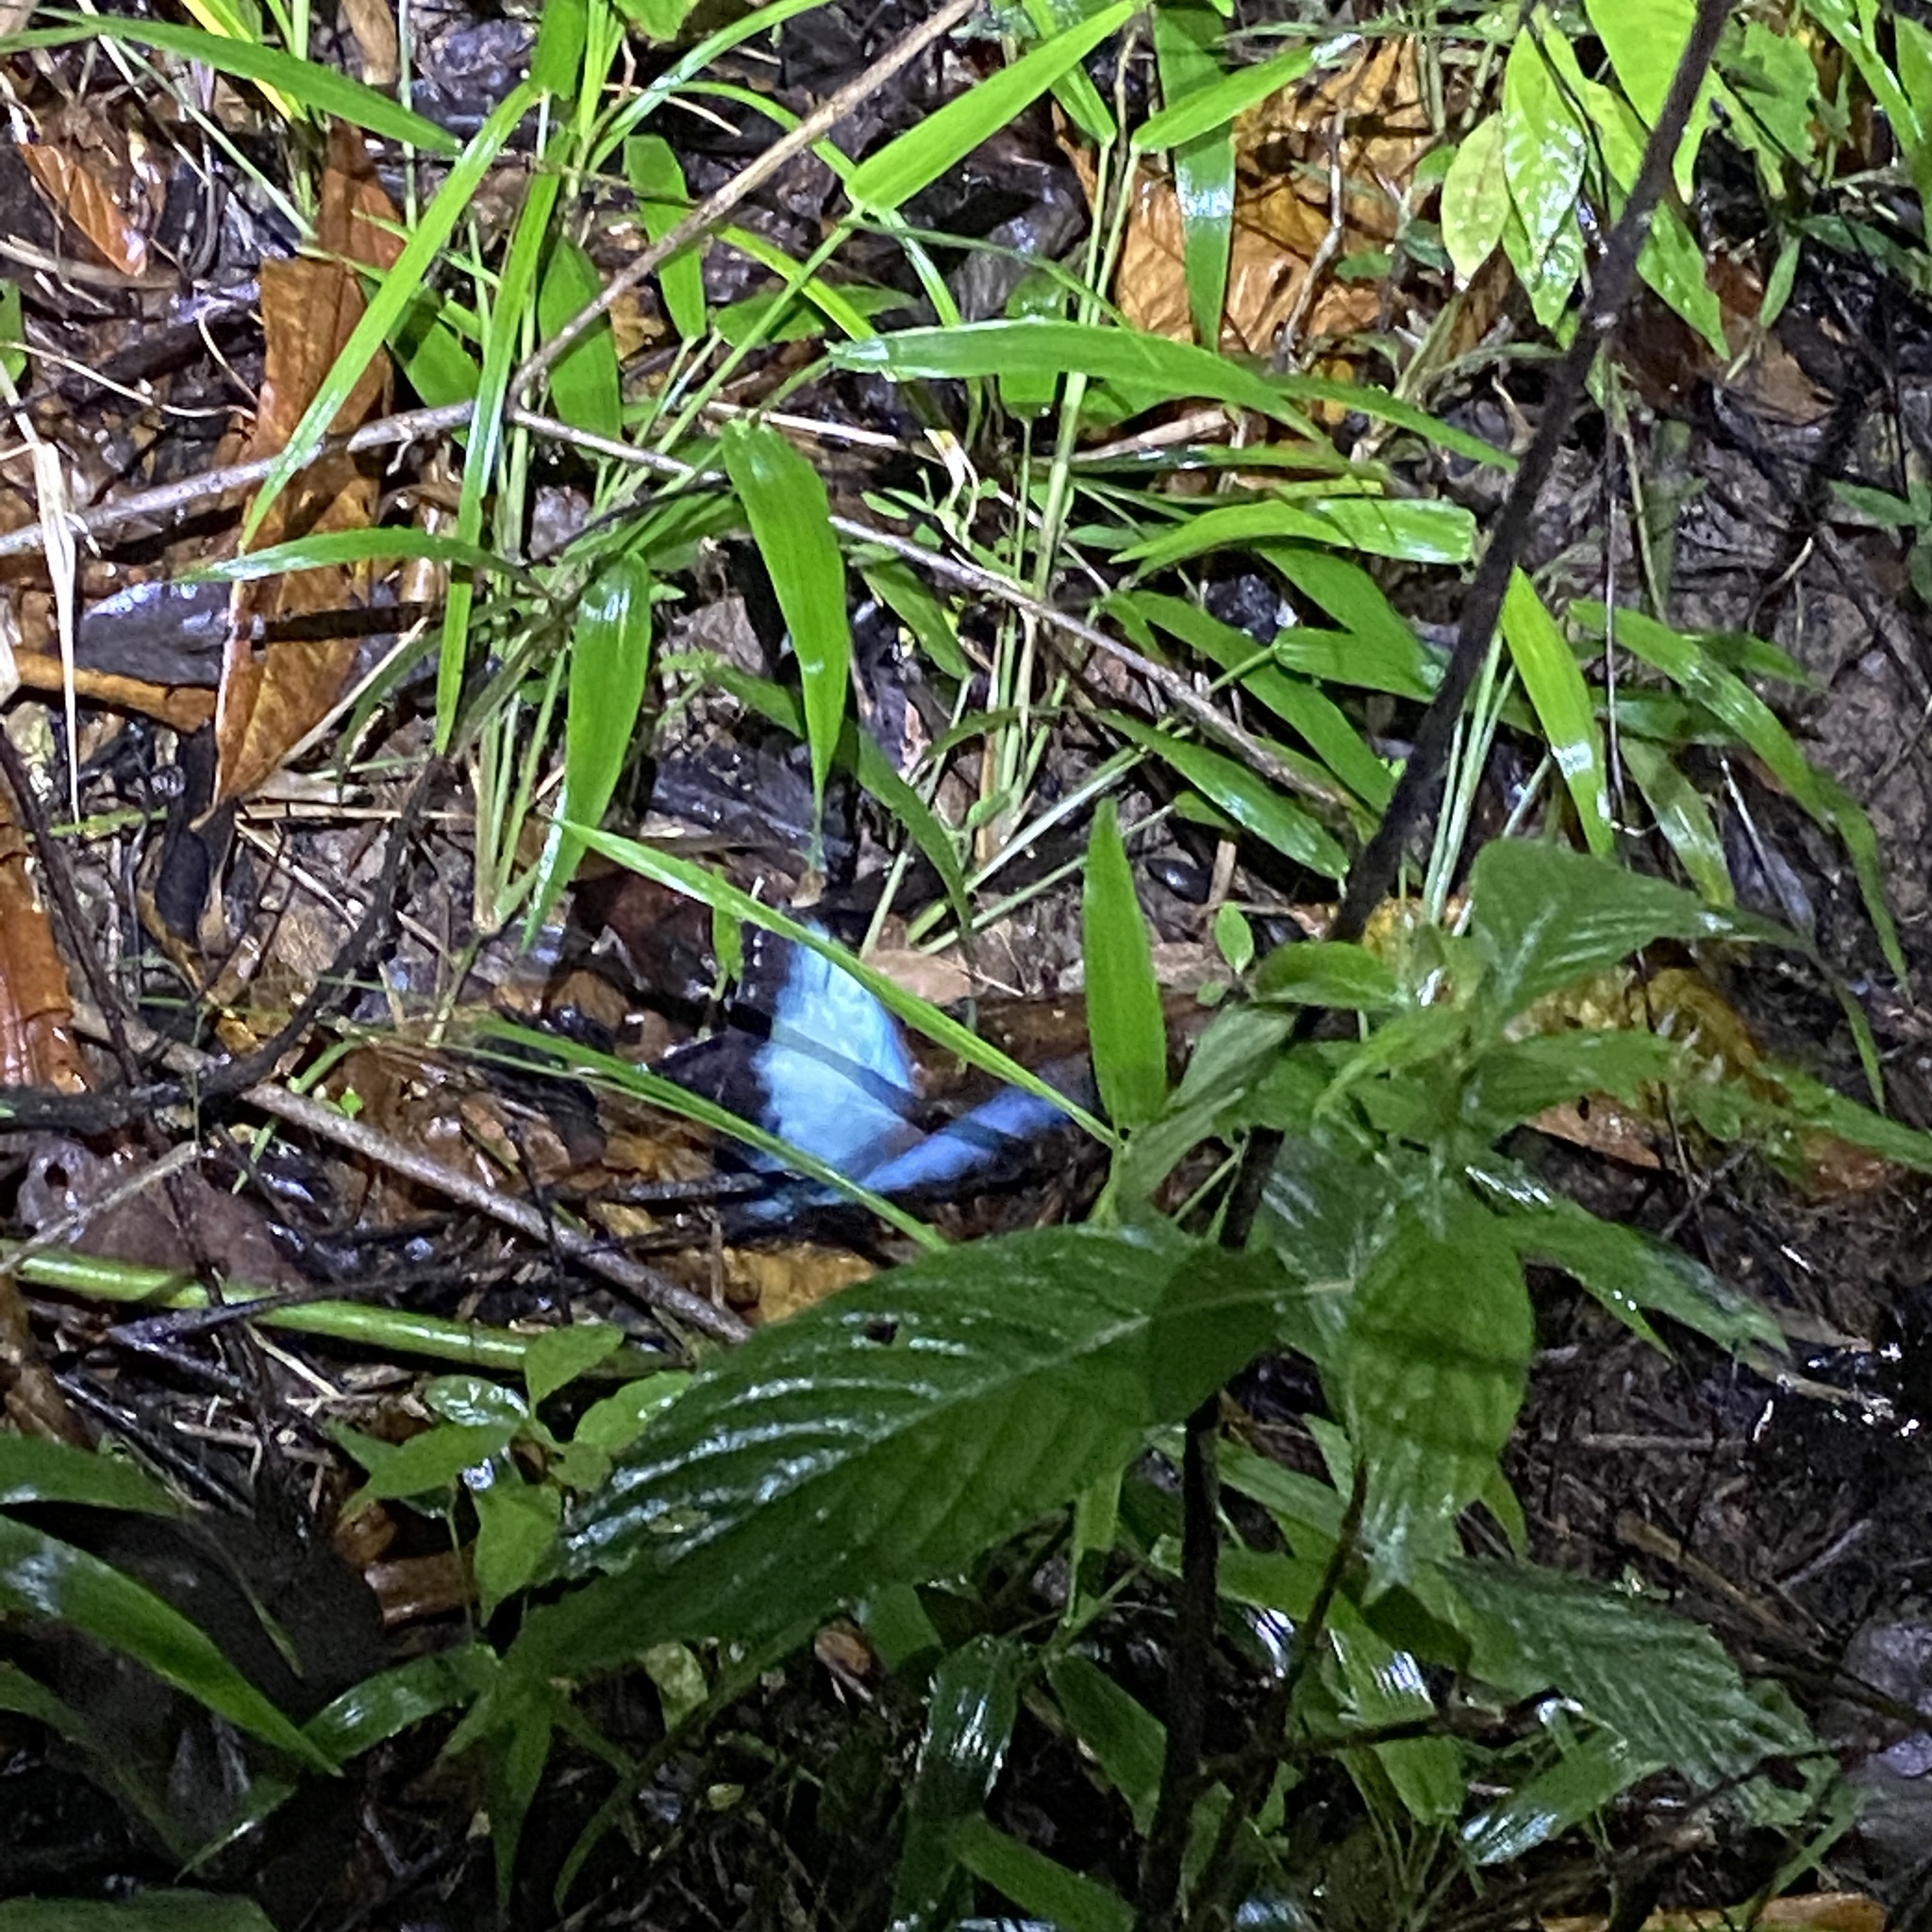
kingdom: Animalia
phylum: Arthropoda
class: Insecta
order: Lepidoptera
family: Nymphalidae
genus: Morpho
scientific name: Morpho helenor
